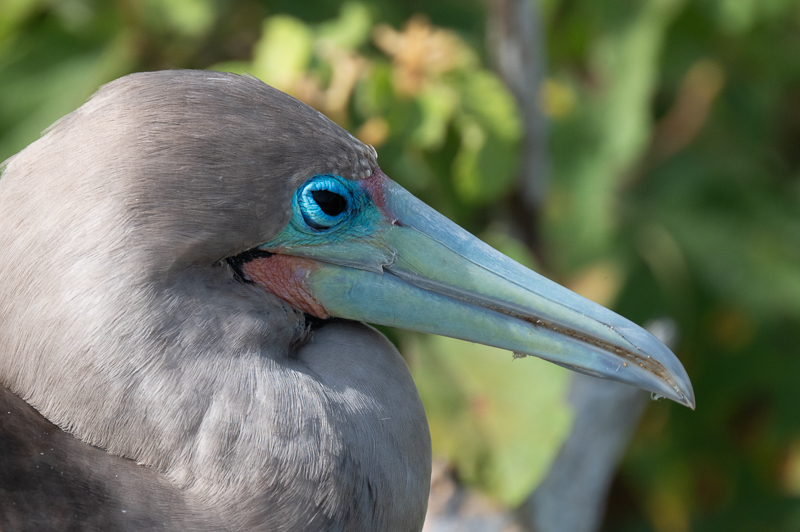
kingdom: Animalia
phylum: Chordata
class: Aves
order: Suliformes
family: Sulidae
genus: Sula
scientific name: Sula sula
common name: Red-footed booby
